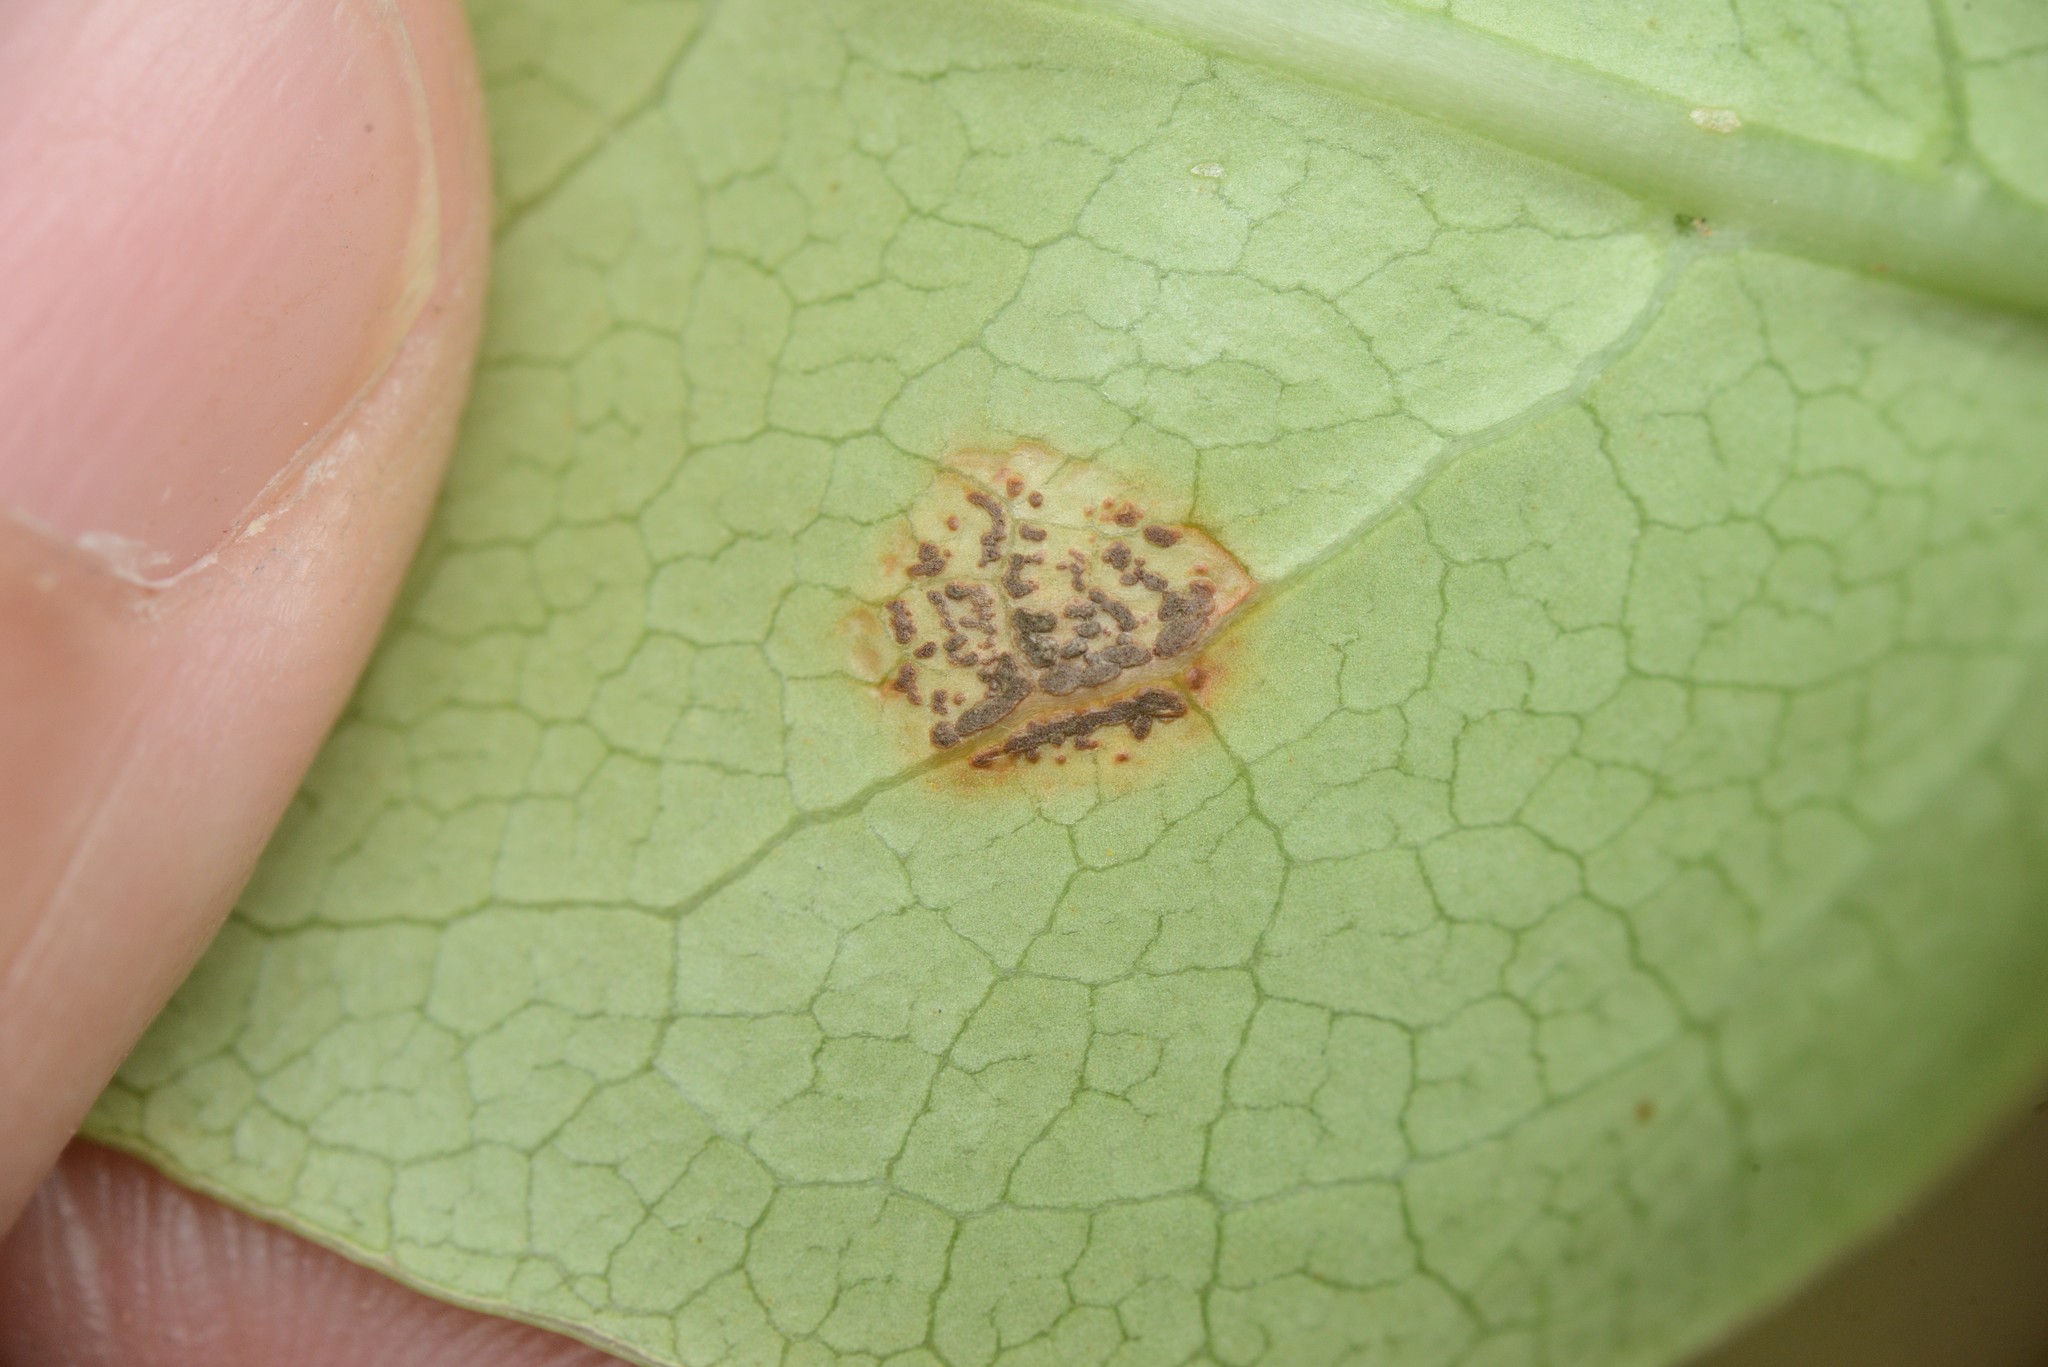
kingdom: Fungi
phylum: Basidiomycota
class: Pucciniomycetes
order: Pucciniales
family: Pucciniaceae
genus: Puccinia
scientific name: Puccinia coprosmae
